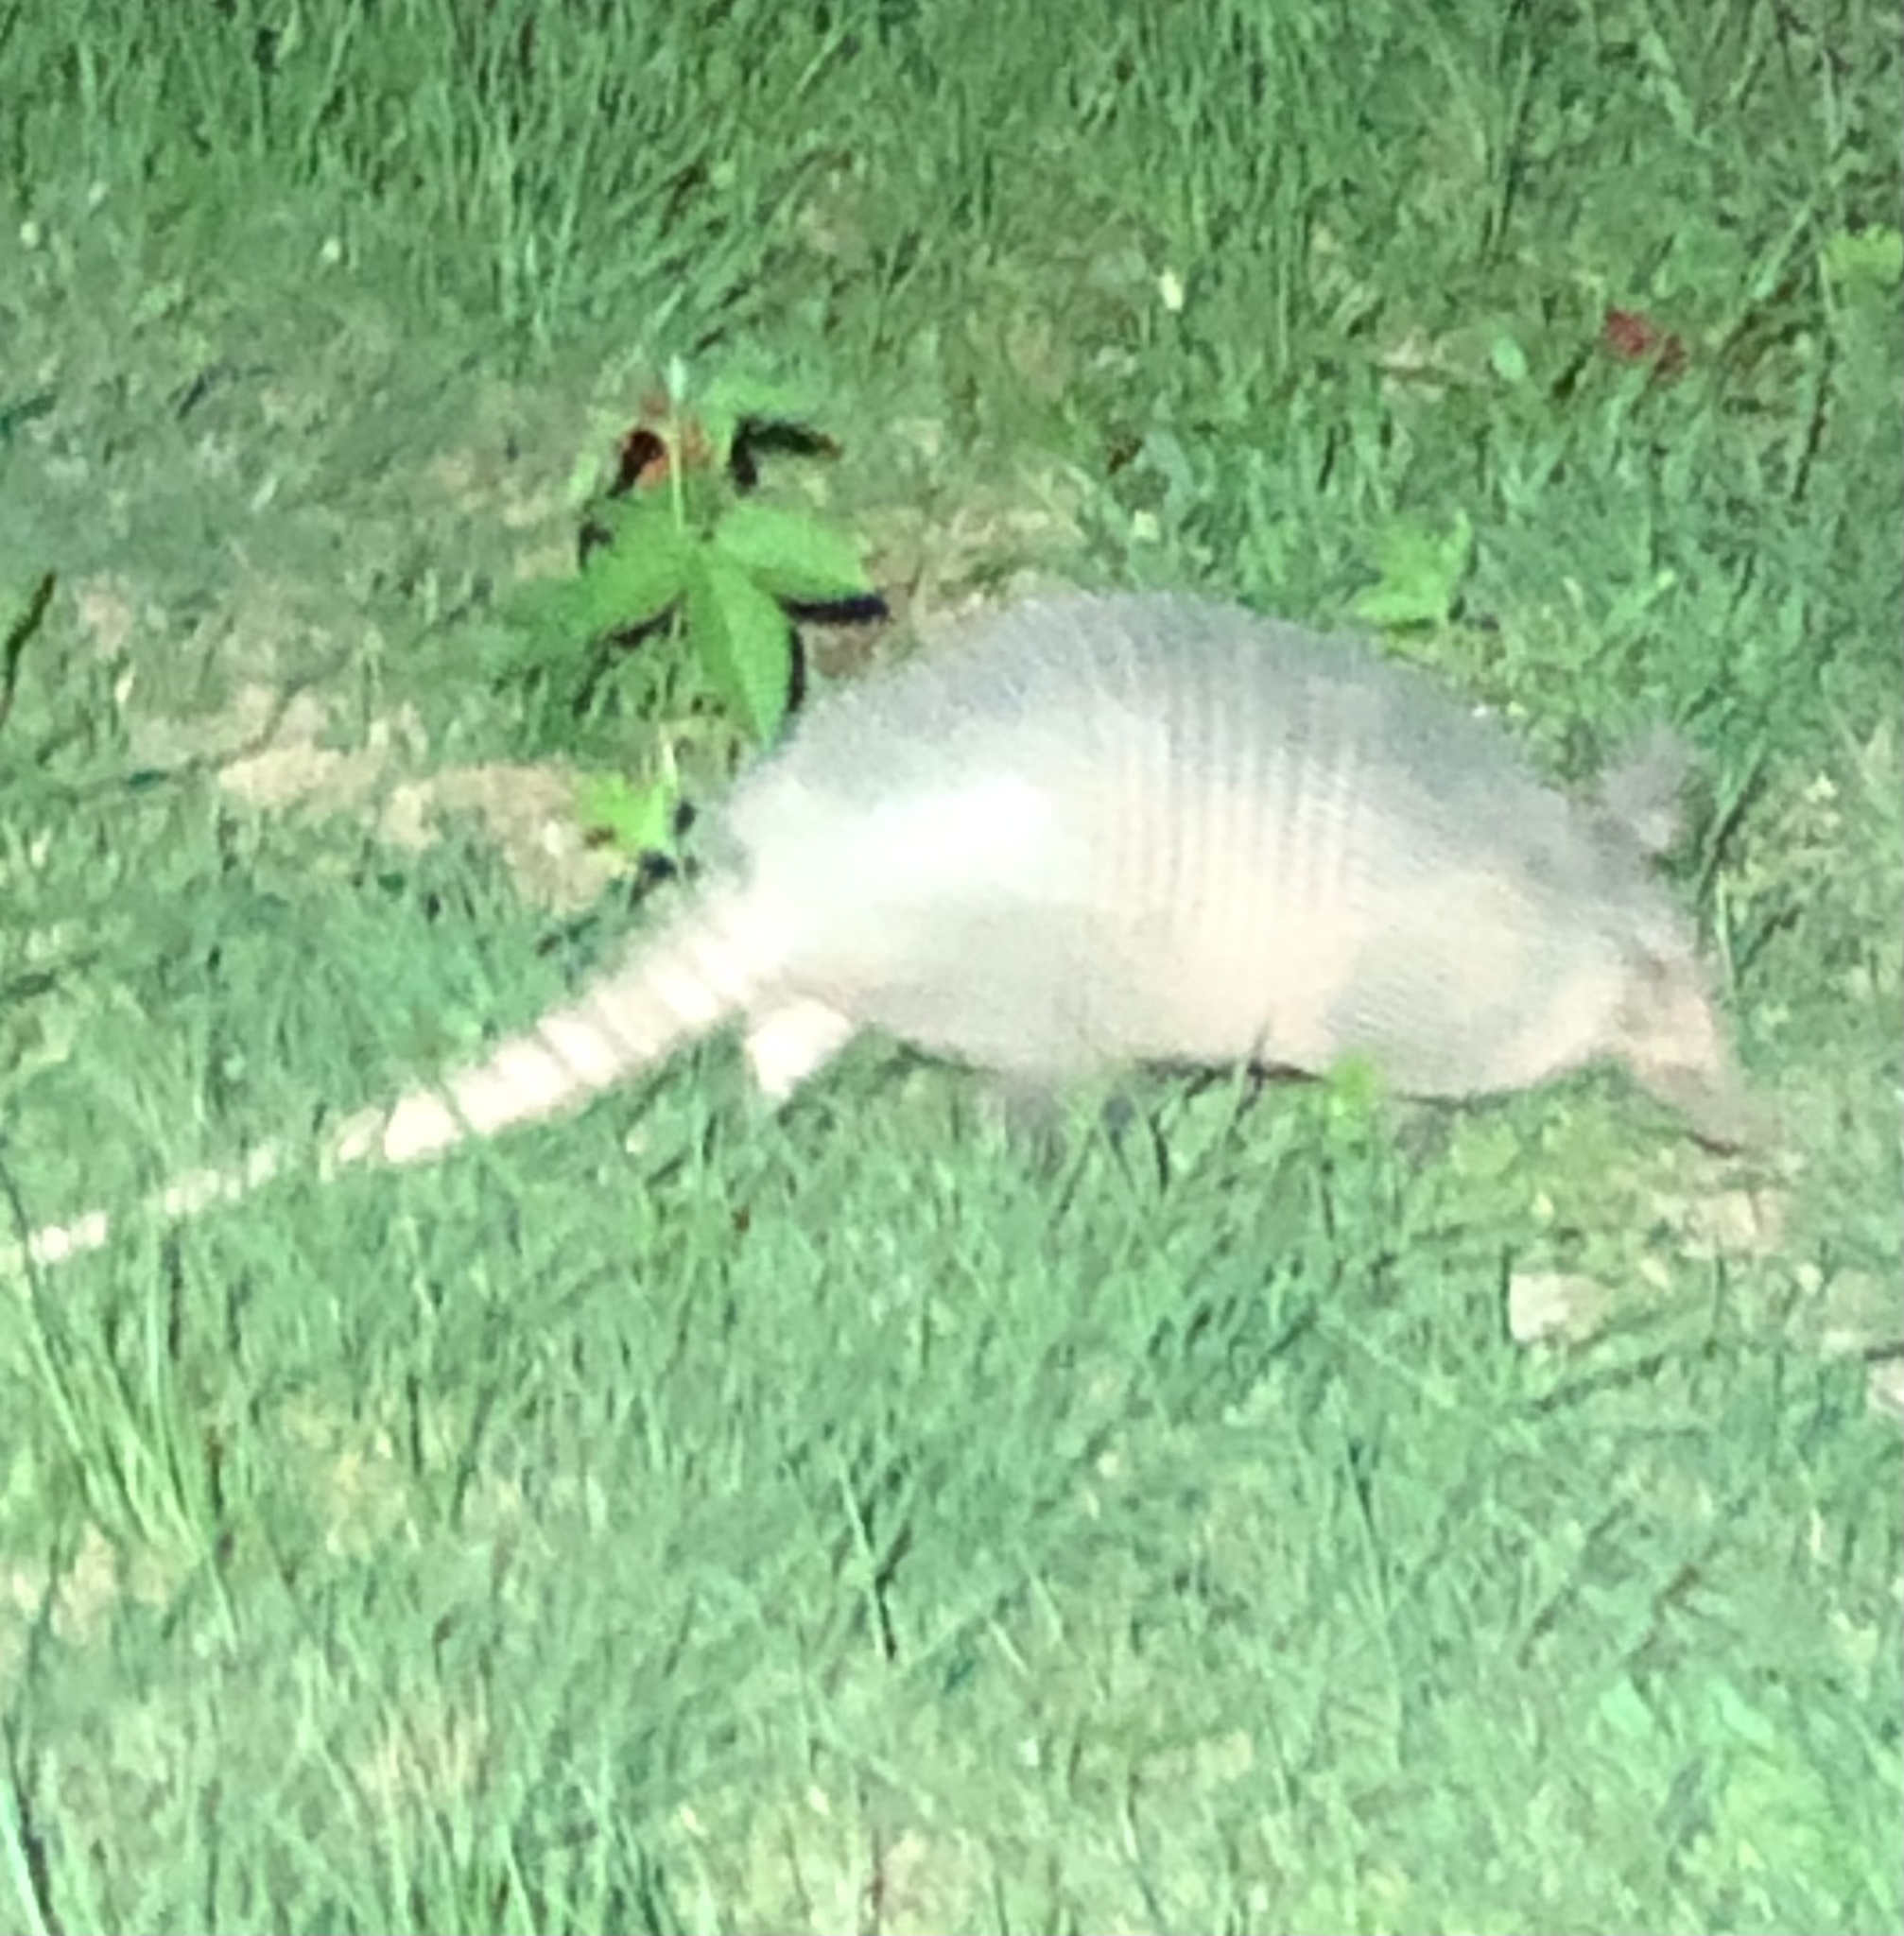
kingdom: Animalia
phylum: Chordata
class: Mammalia
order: Cingulata
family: Dasypodidae
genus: Dasypus
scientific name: Dasypus novemcinctus
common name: Nine-banded armadillo
